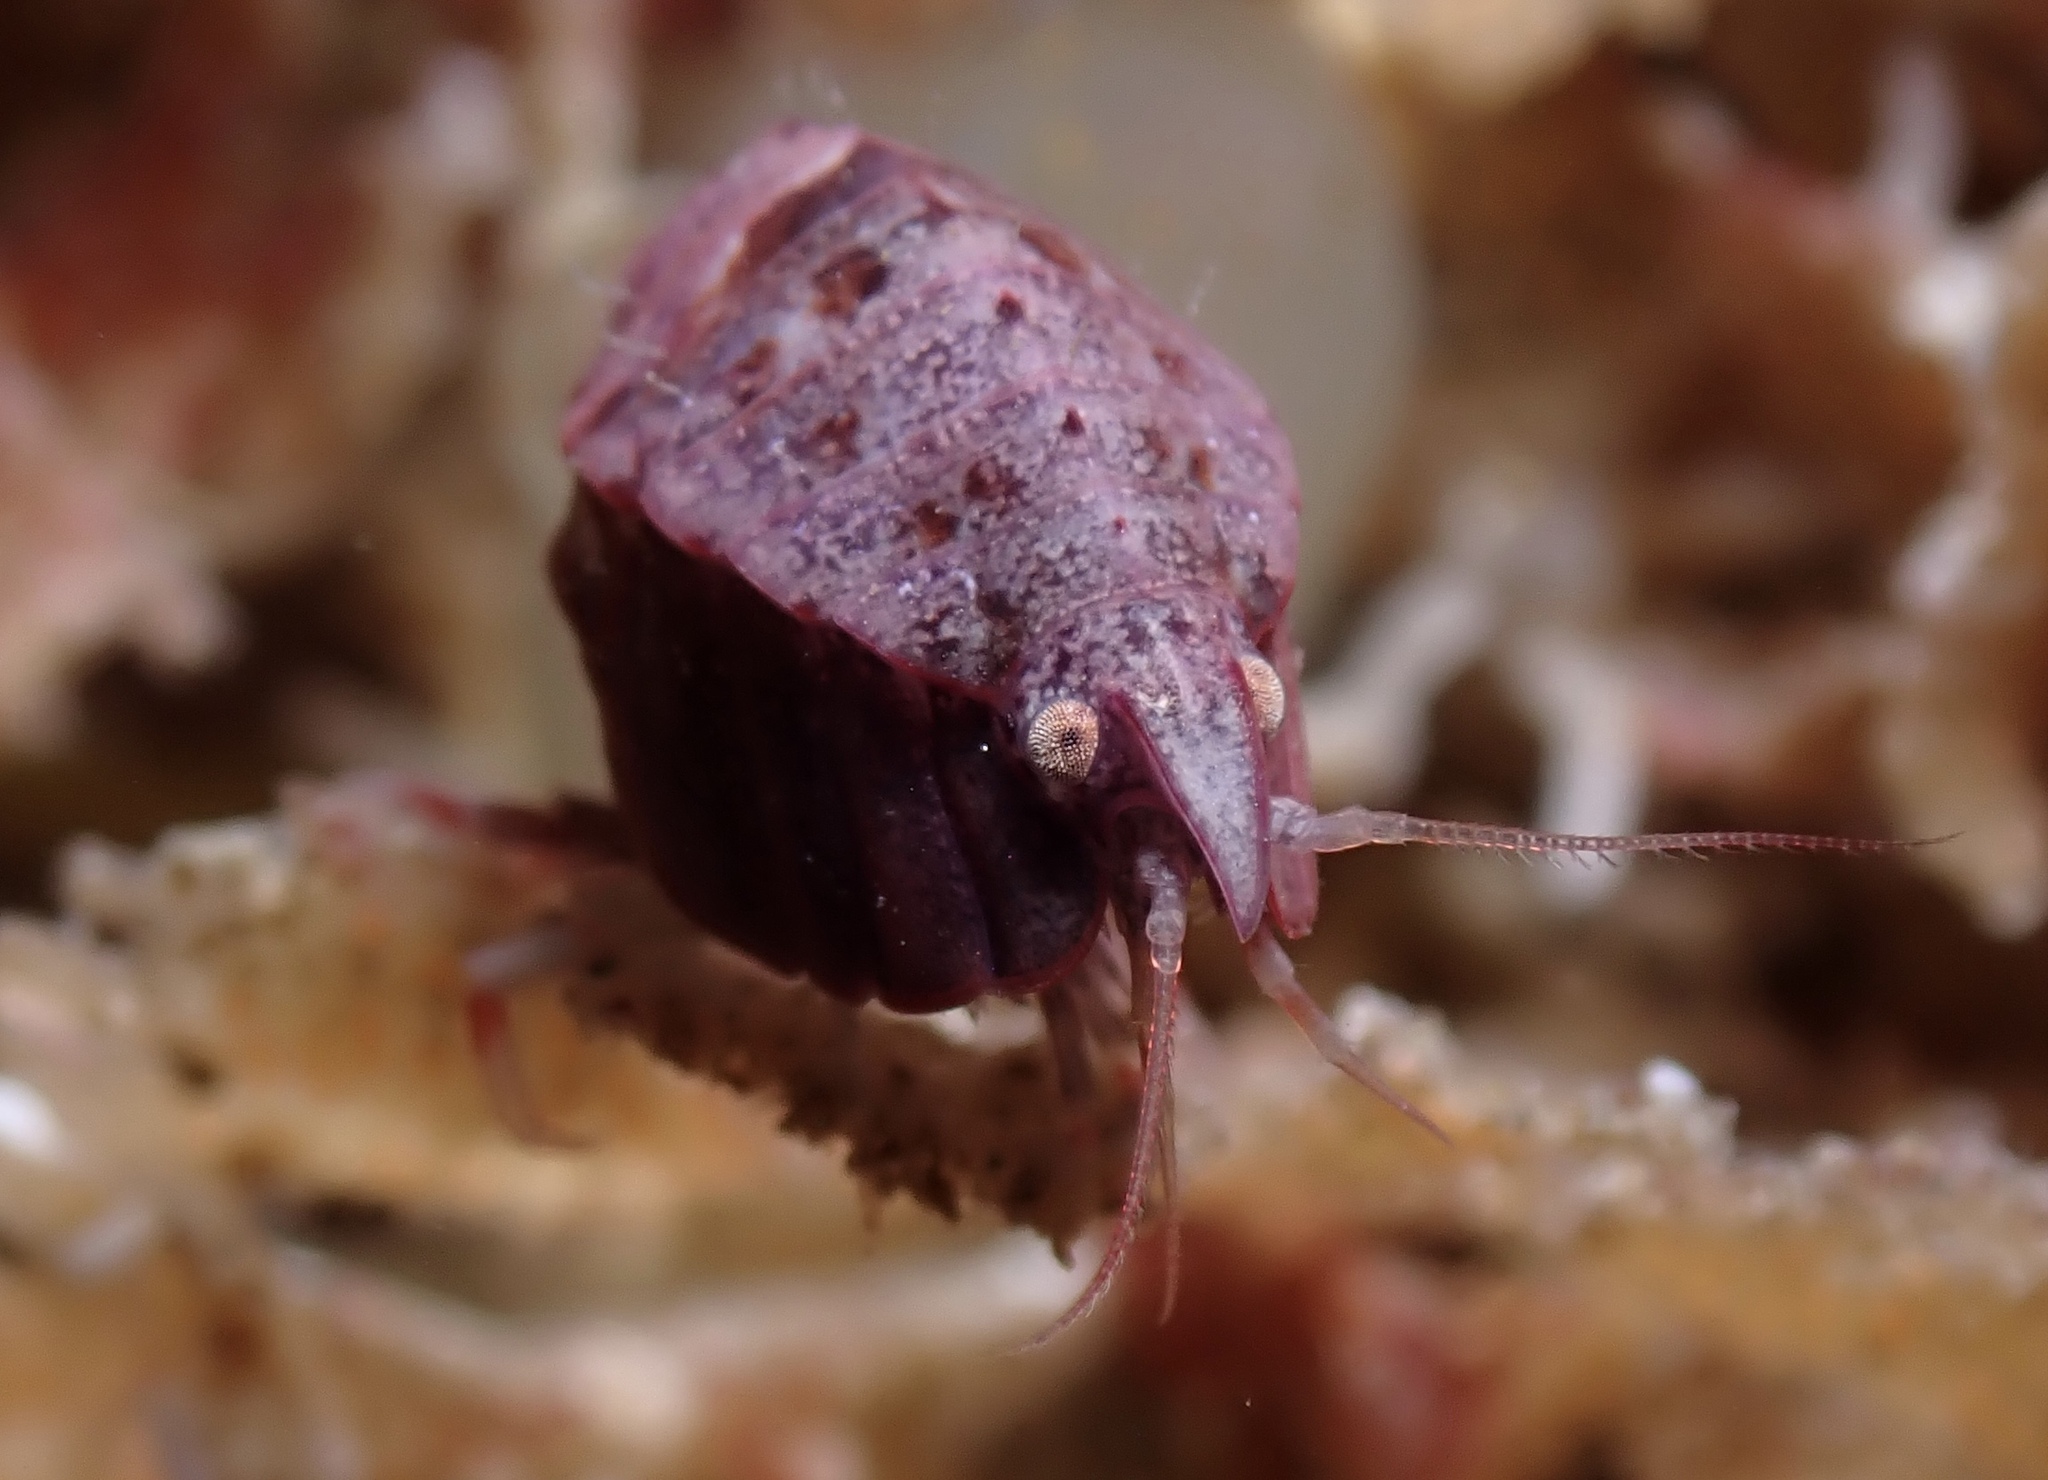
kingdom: Animalia
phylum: Arthropoda
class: Malacostraca
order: Amphipoda
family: Pleustidae
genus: Pleustes
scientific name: Pleustes panoplus
